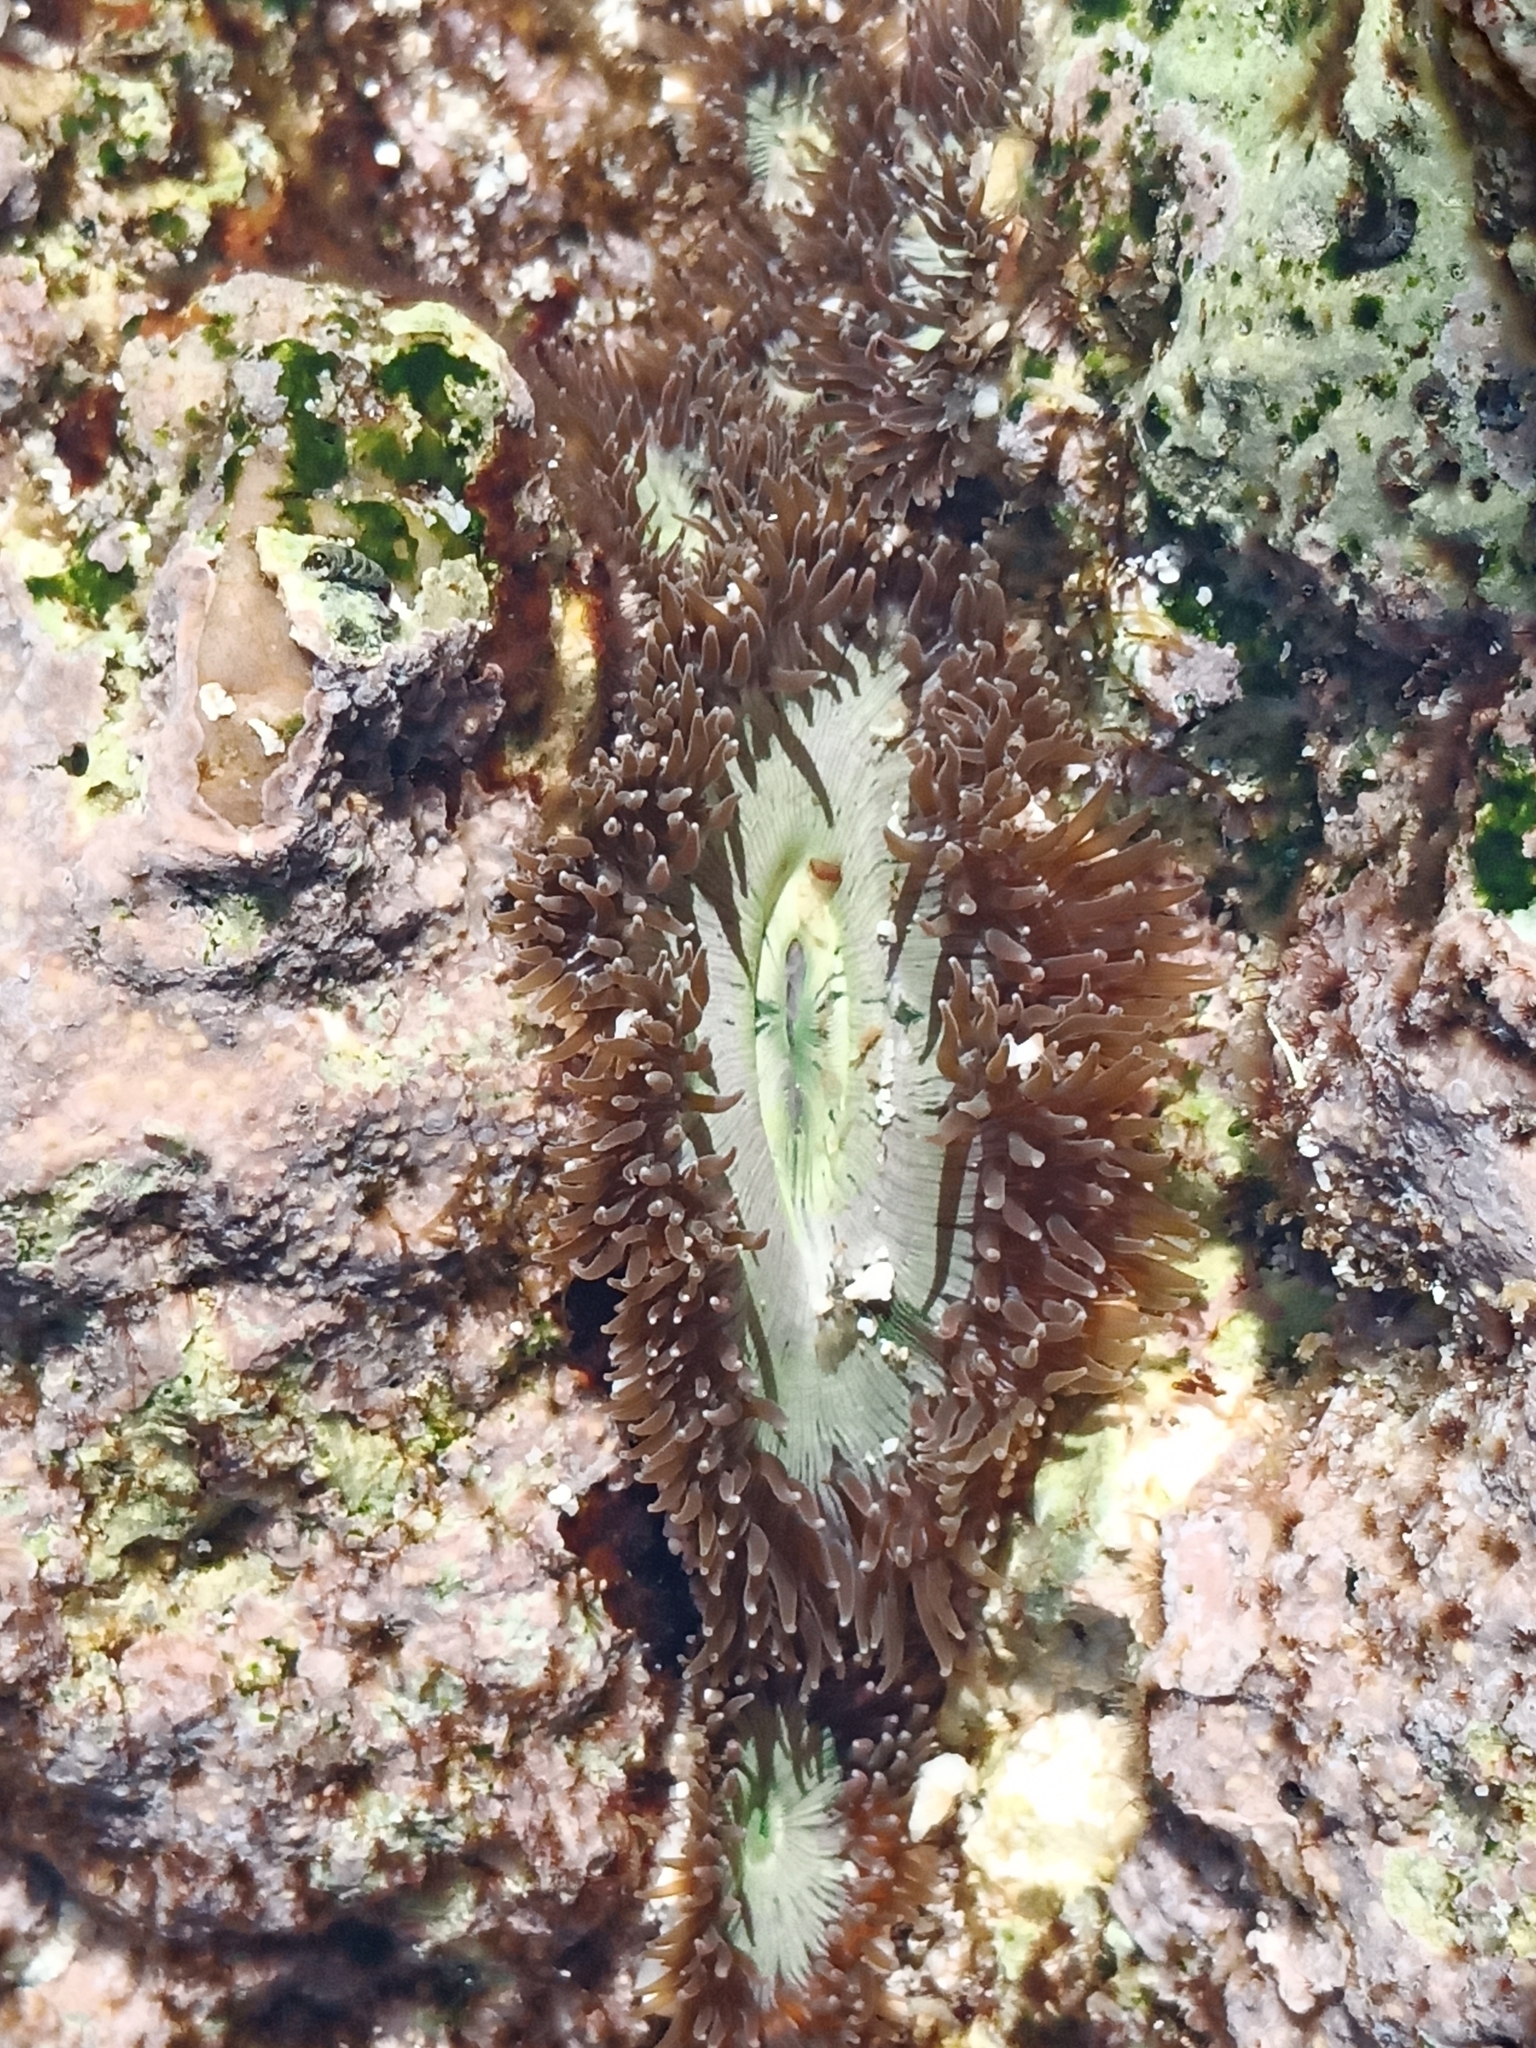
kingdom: Animalia
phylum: Cnidaria
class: Anthozoa
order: Actiniaria
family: Actiniidae
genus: Gyractis
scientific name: Gyractis sesere
